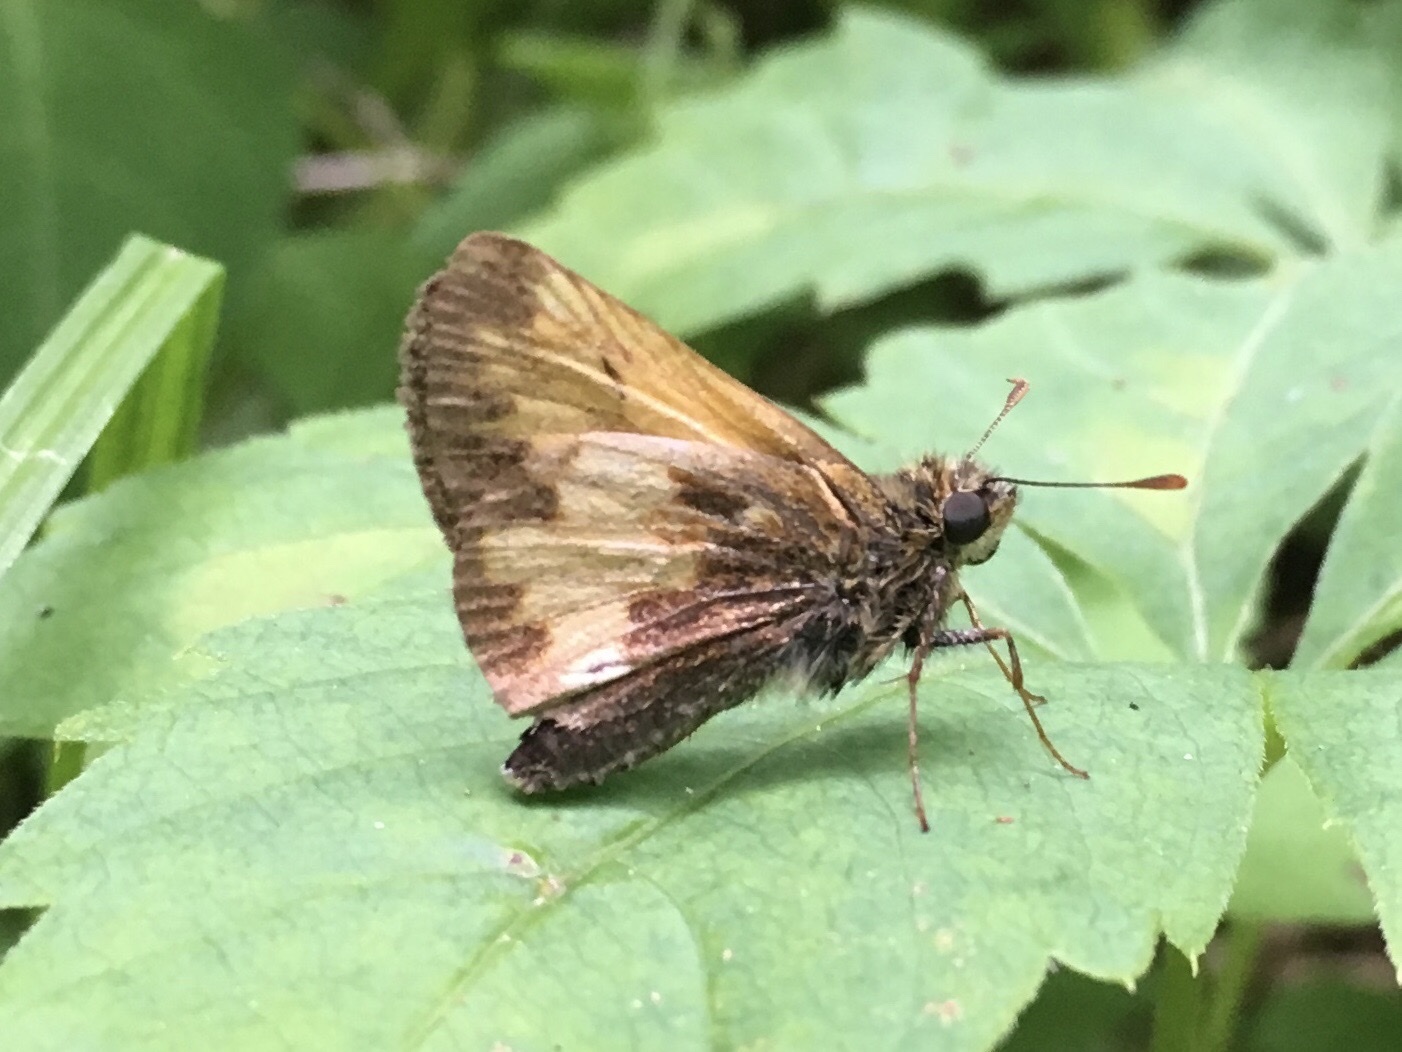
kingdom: Animalia
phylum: Arthropoda
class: Insecta
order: Lepidoptera
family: Hesperiidae
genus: Lon
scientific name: Lon hobomok
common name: Hobomok skipper
